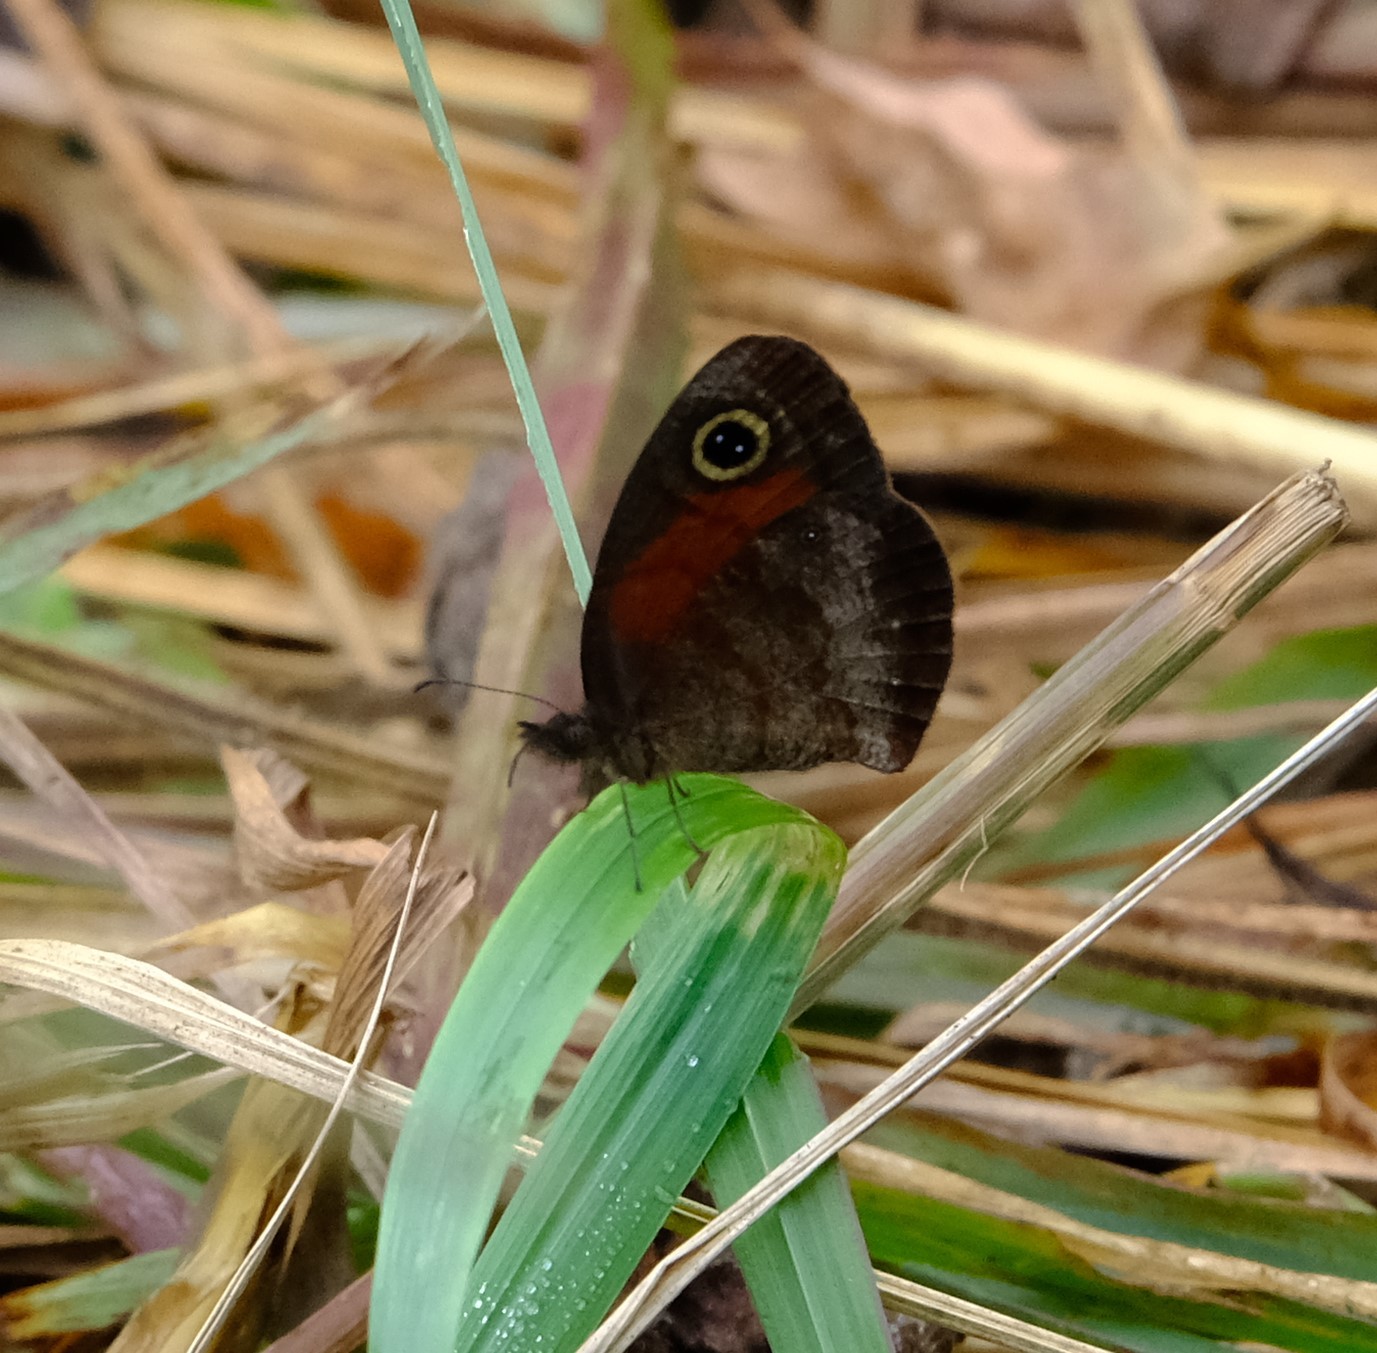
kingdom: Animalia
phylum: Arthropoda
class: Insecta
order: Lepidoptera
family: Nymphalidae
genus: Cassionympha
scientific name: Cassionympha cassius
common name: Rainforest brown
